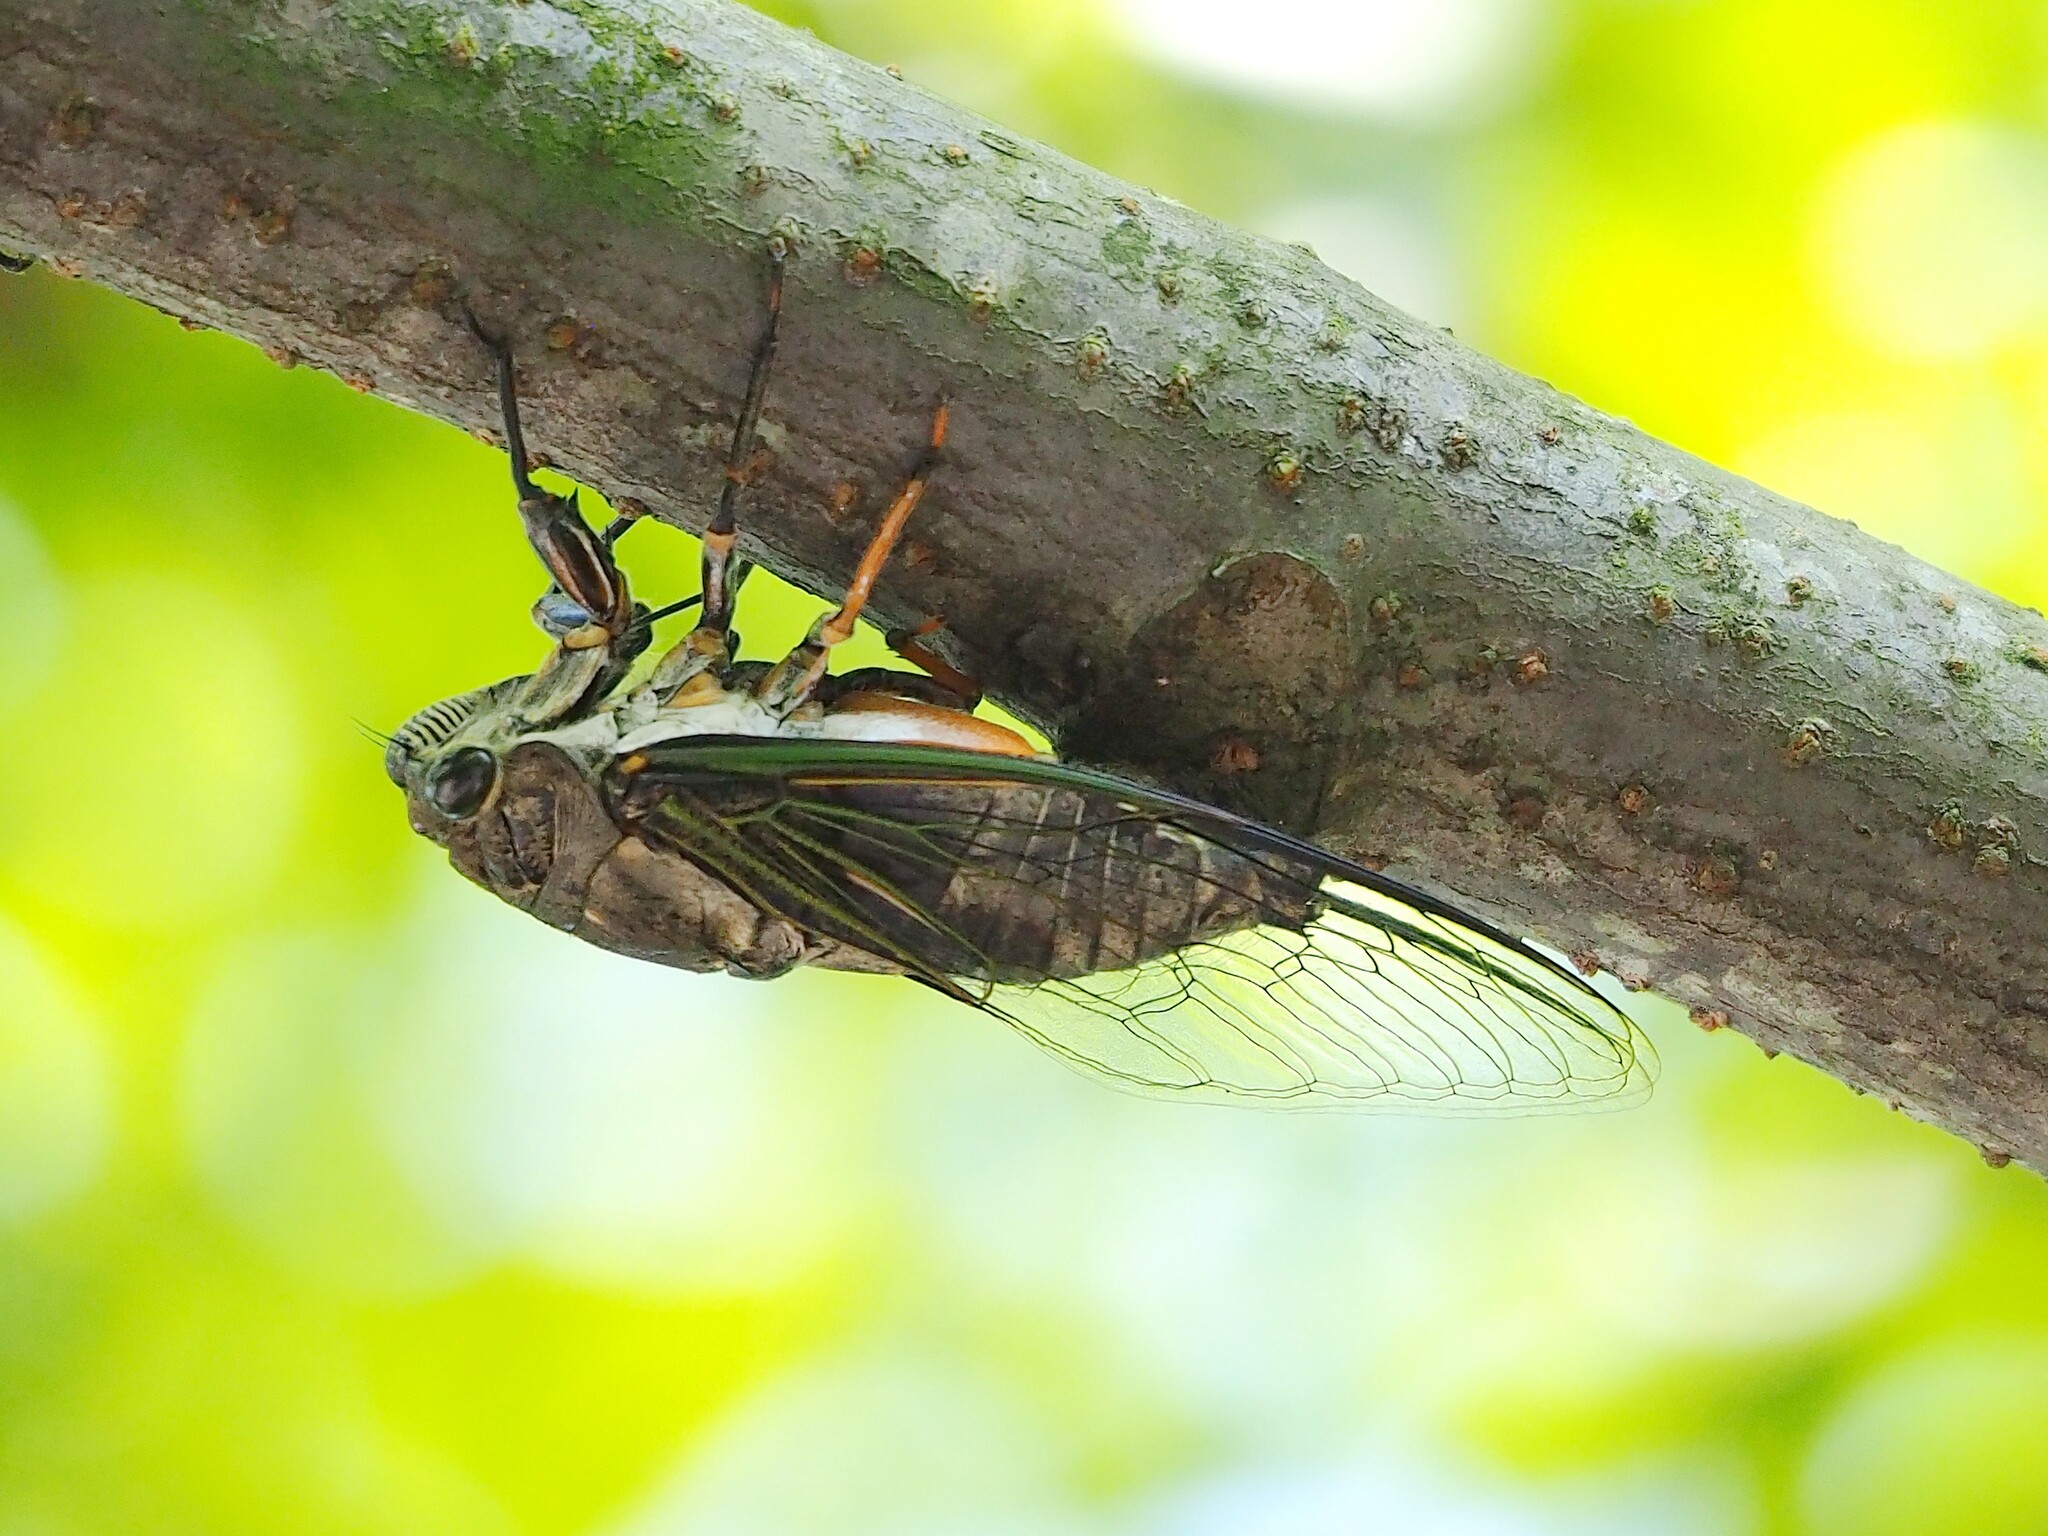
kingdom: Animalia
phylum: Arthropoda
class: Insecta
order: Hemiptera
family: Cicadidae
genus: Cryptotympana
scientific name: Cryptotympana takasagona
